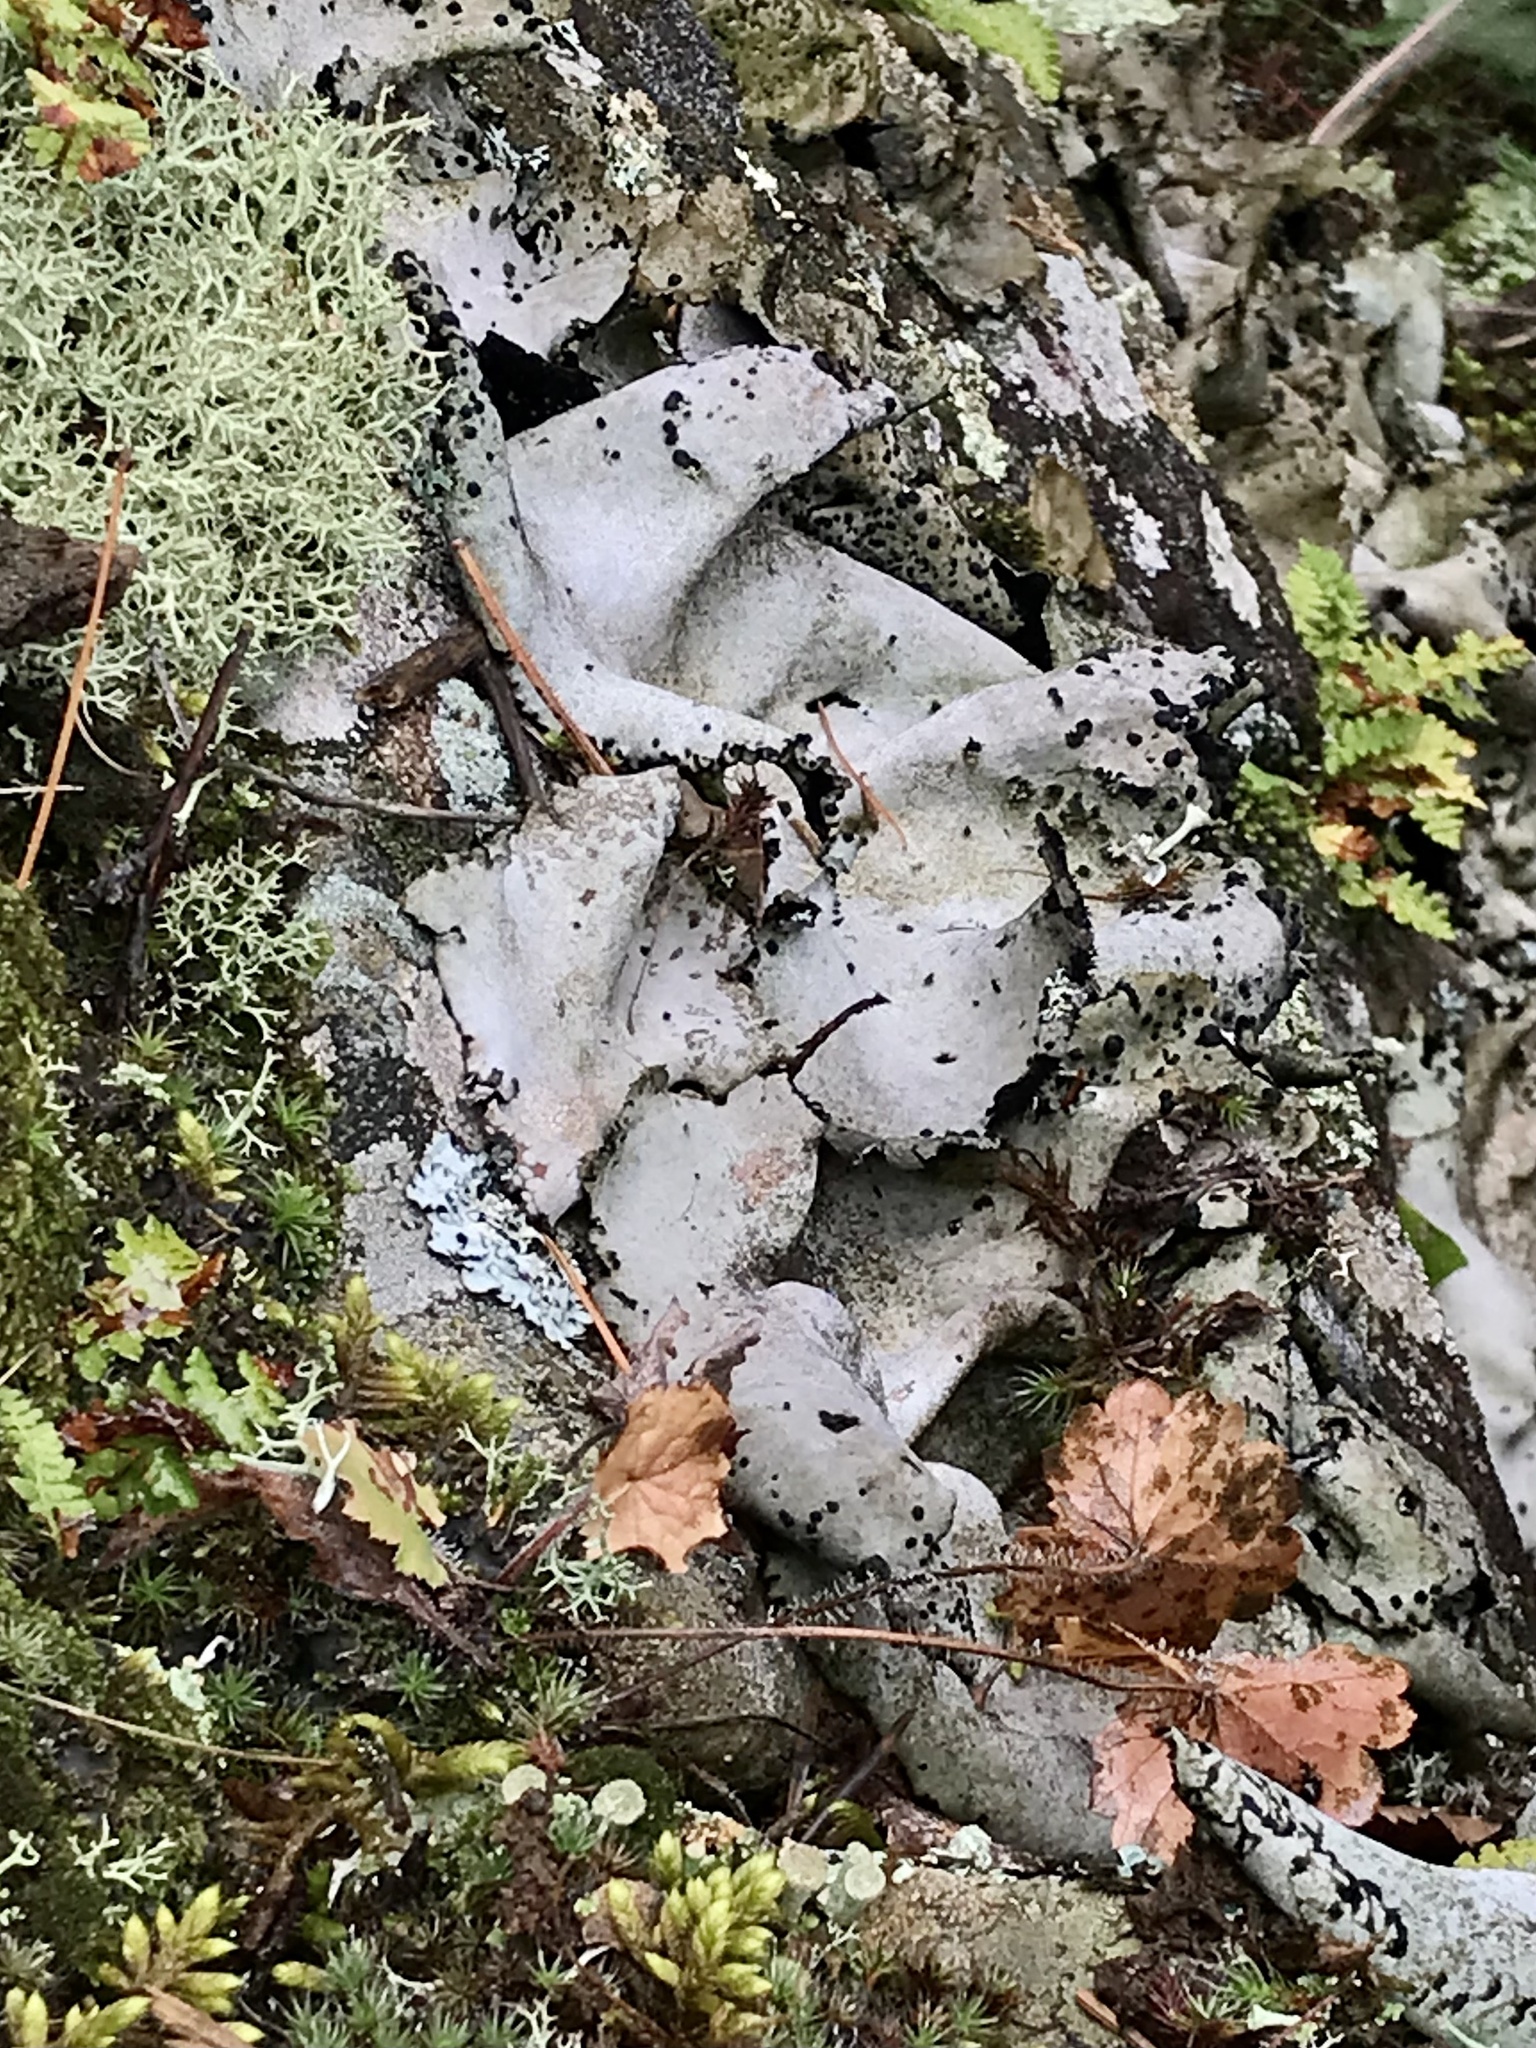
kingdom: Fungi
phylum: Ascomycota
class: Lecanoromycetes
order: Umbilicariales
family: Umbilicariaceae
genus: Umbilicaria
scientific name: Umbilicaria americana
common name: Frosted rock tripe
